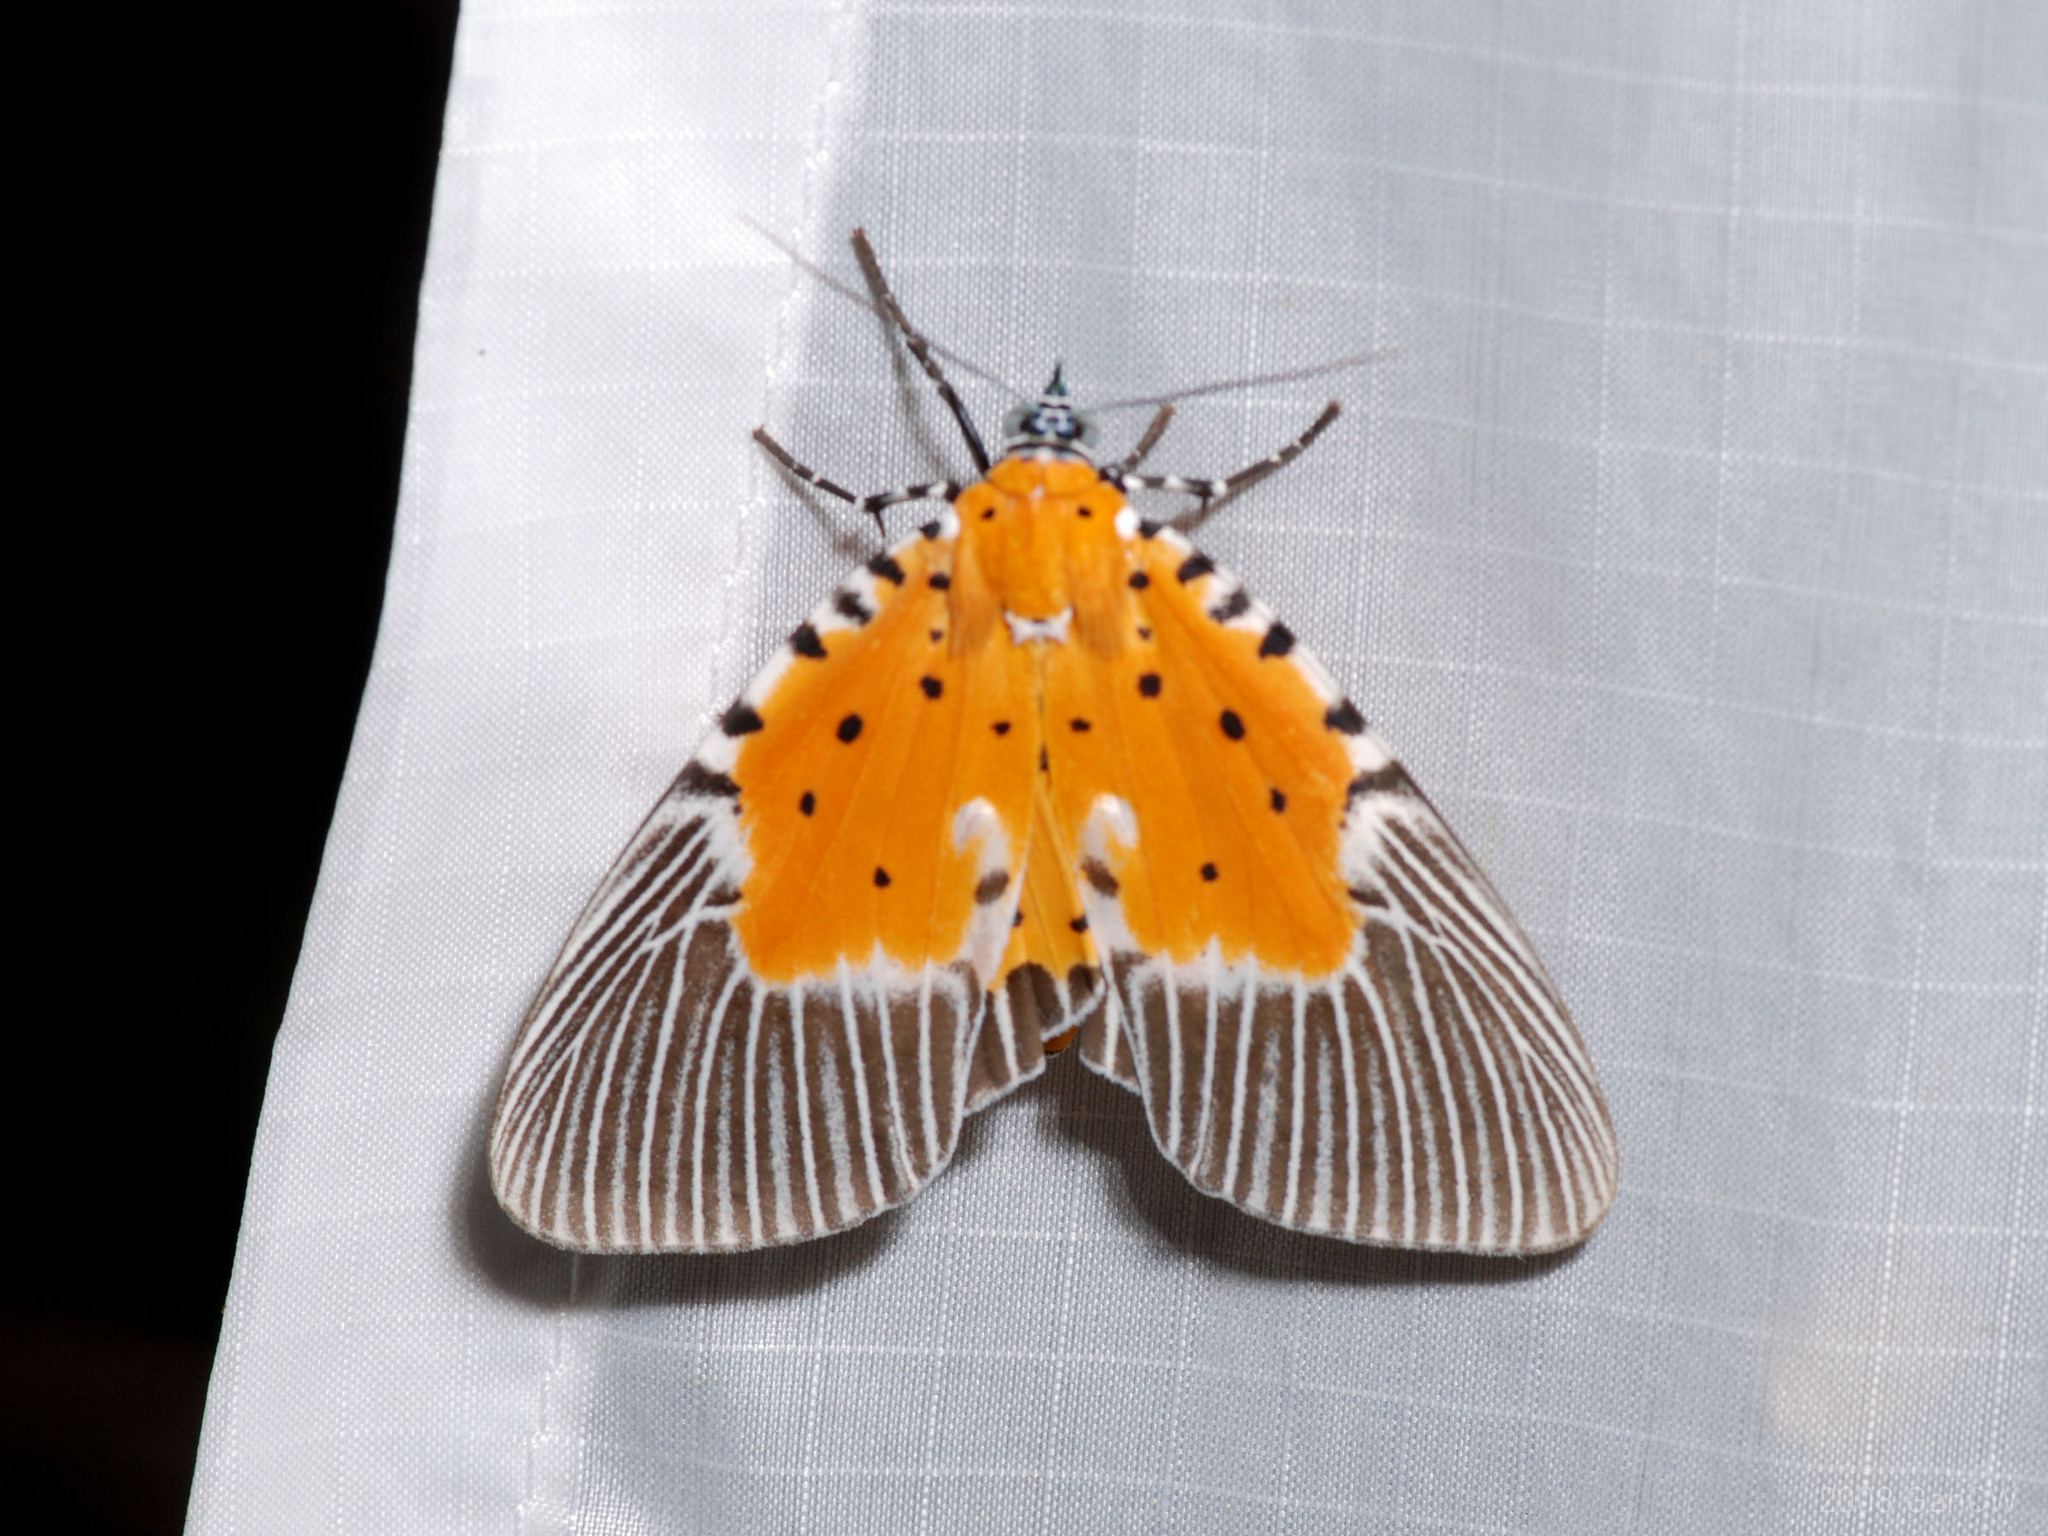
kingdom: Animalia
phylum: Arthropoda
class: Insecta
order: Lepidoptera
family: Erebidae
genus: Peridrome
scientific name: Peridrome orbicularis
